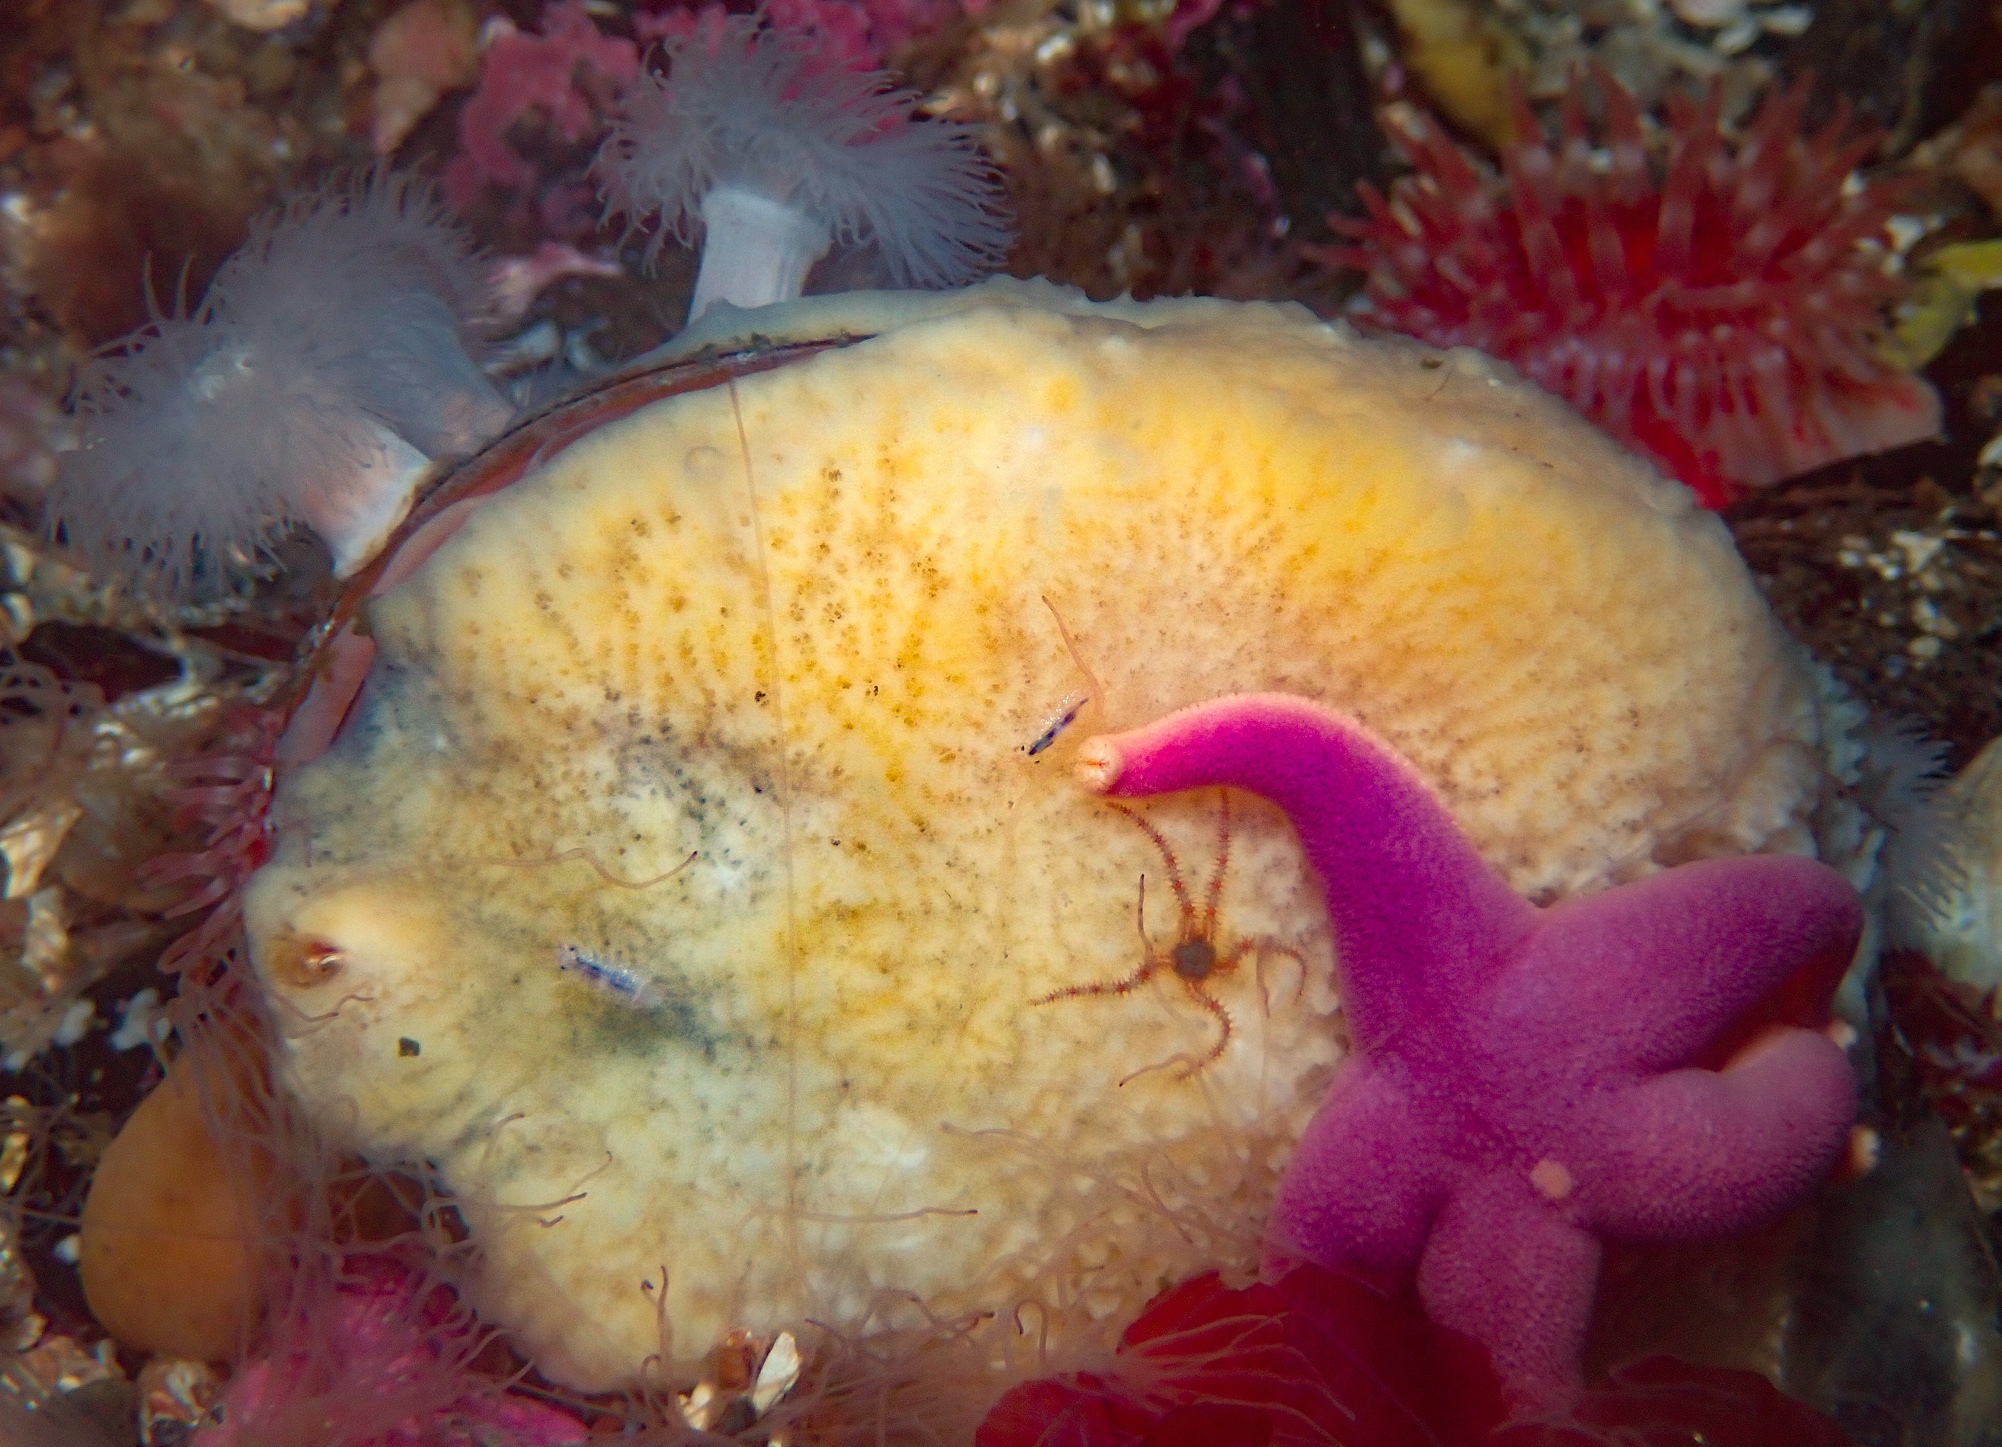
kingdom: Animalia
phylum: Echinodermata
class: Asteroidea
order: Spinulosida
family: Echinasteridae
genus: Henricia
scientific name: Henricia
